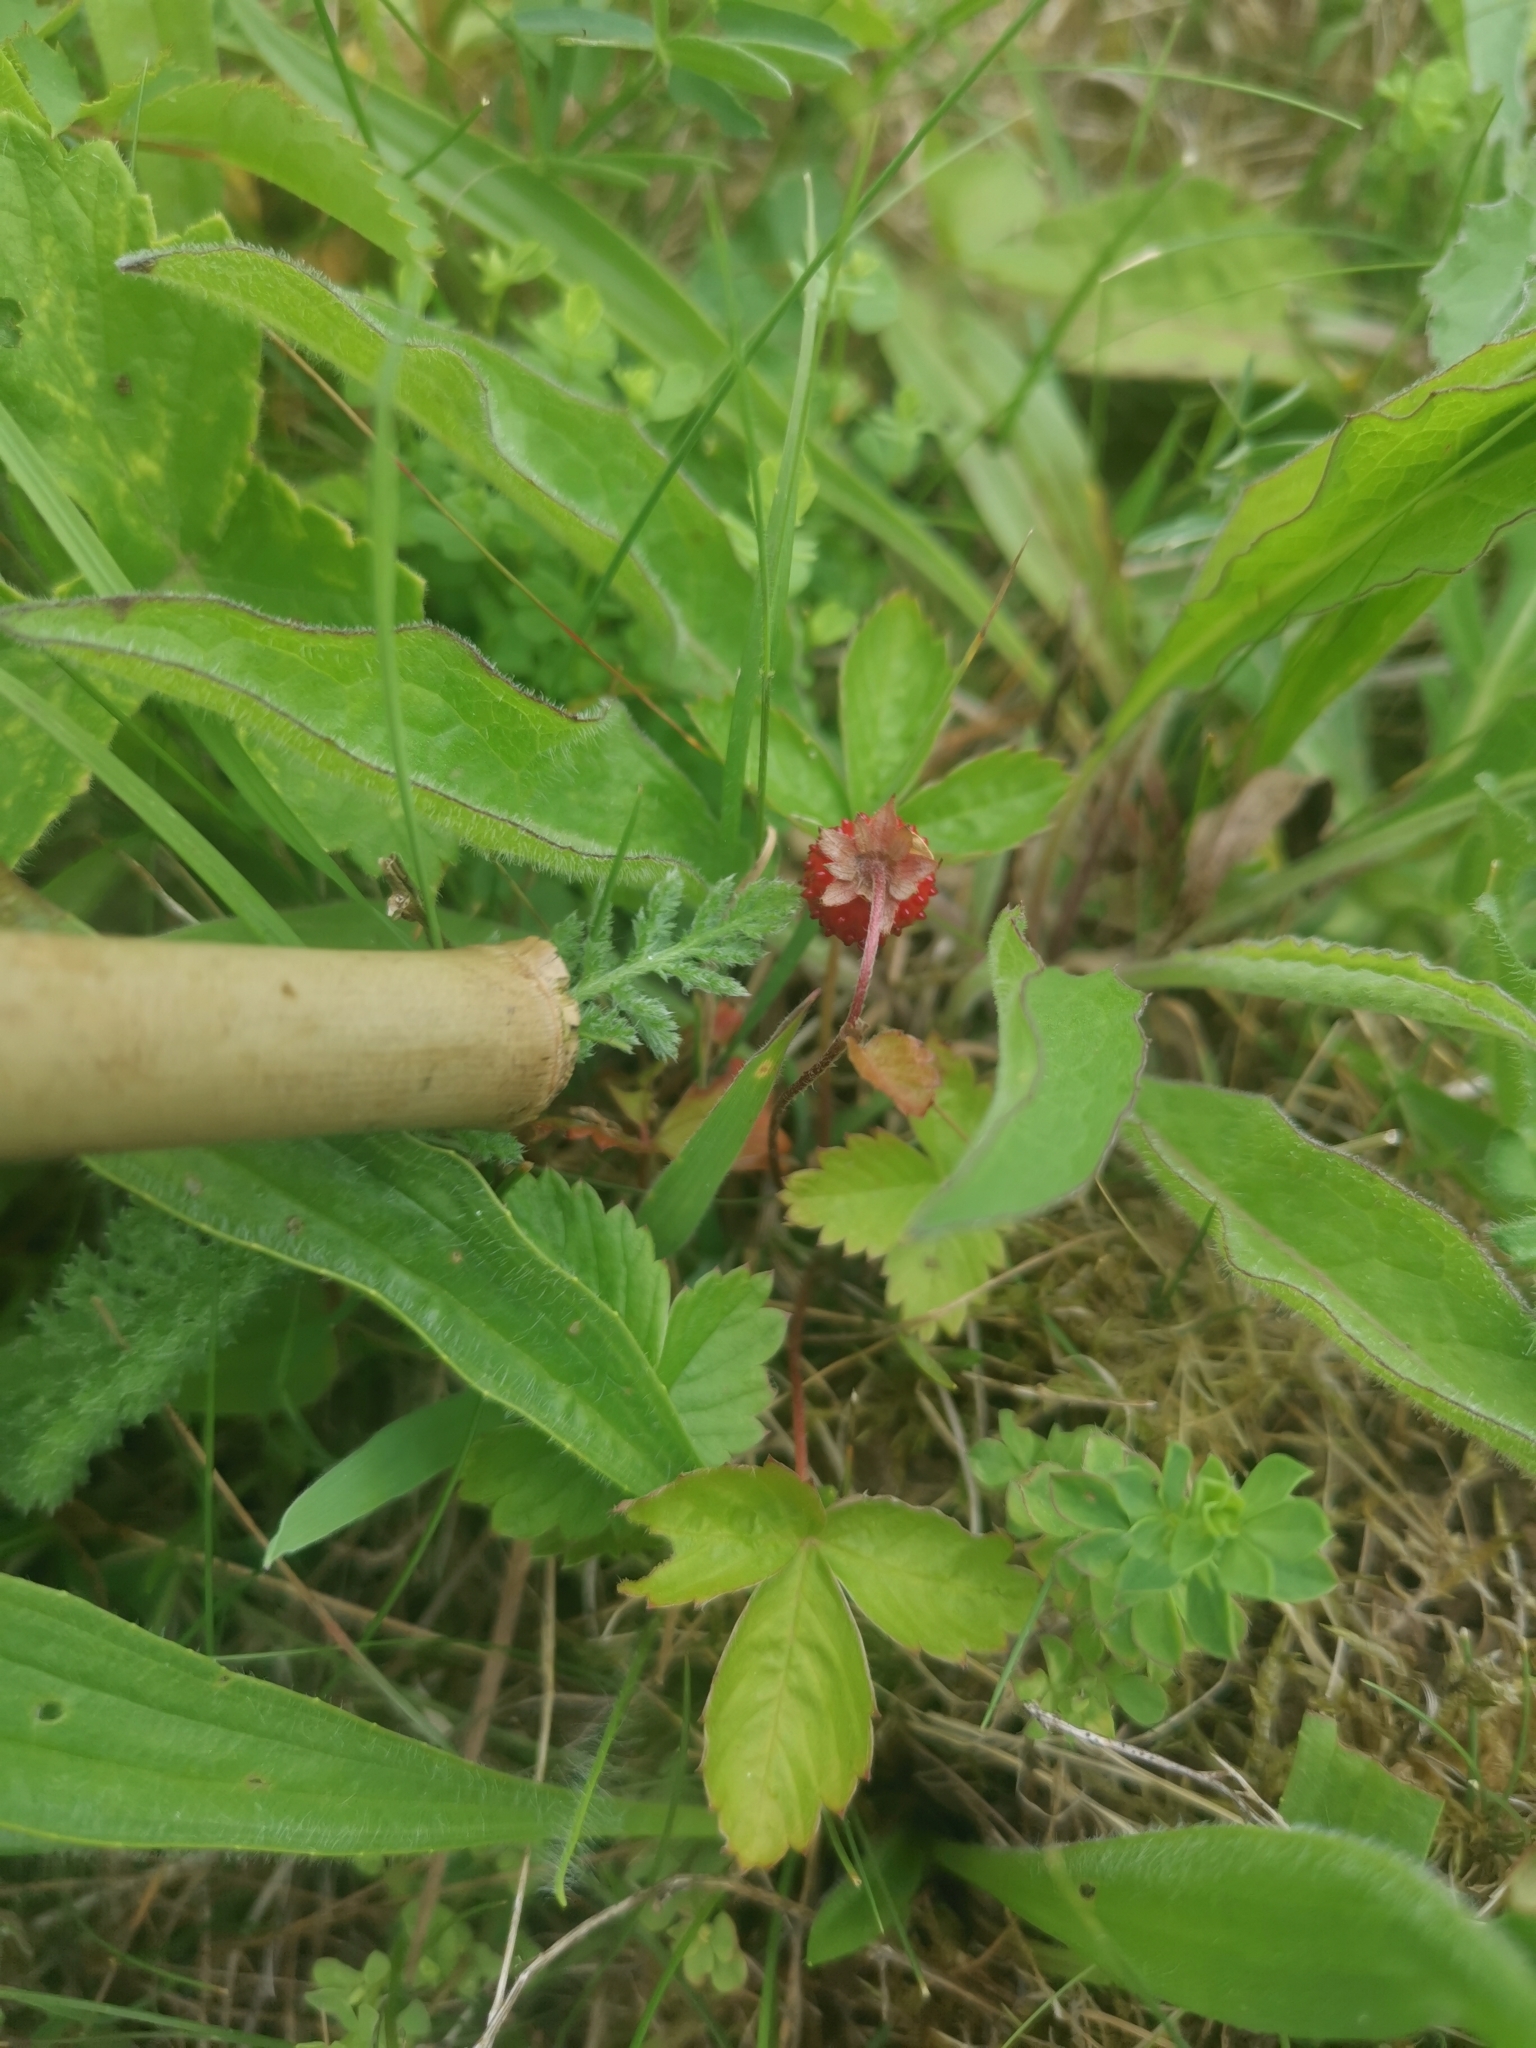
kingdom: Plantae
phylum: Tracheophyta
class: Magnoliopsida
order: Rosales
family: Rosaceae
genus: Fragaria
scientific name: Fragaria vesca
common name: Wild strawberry
